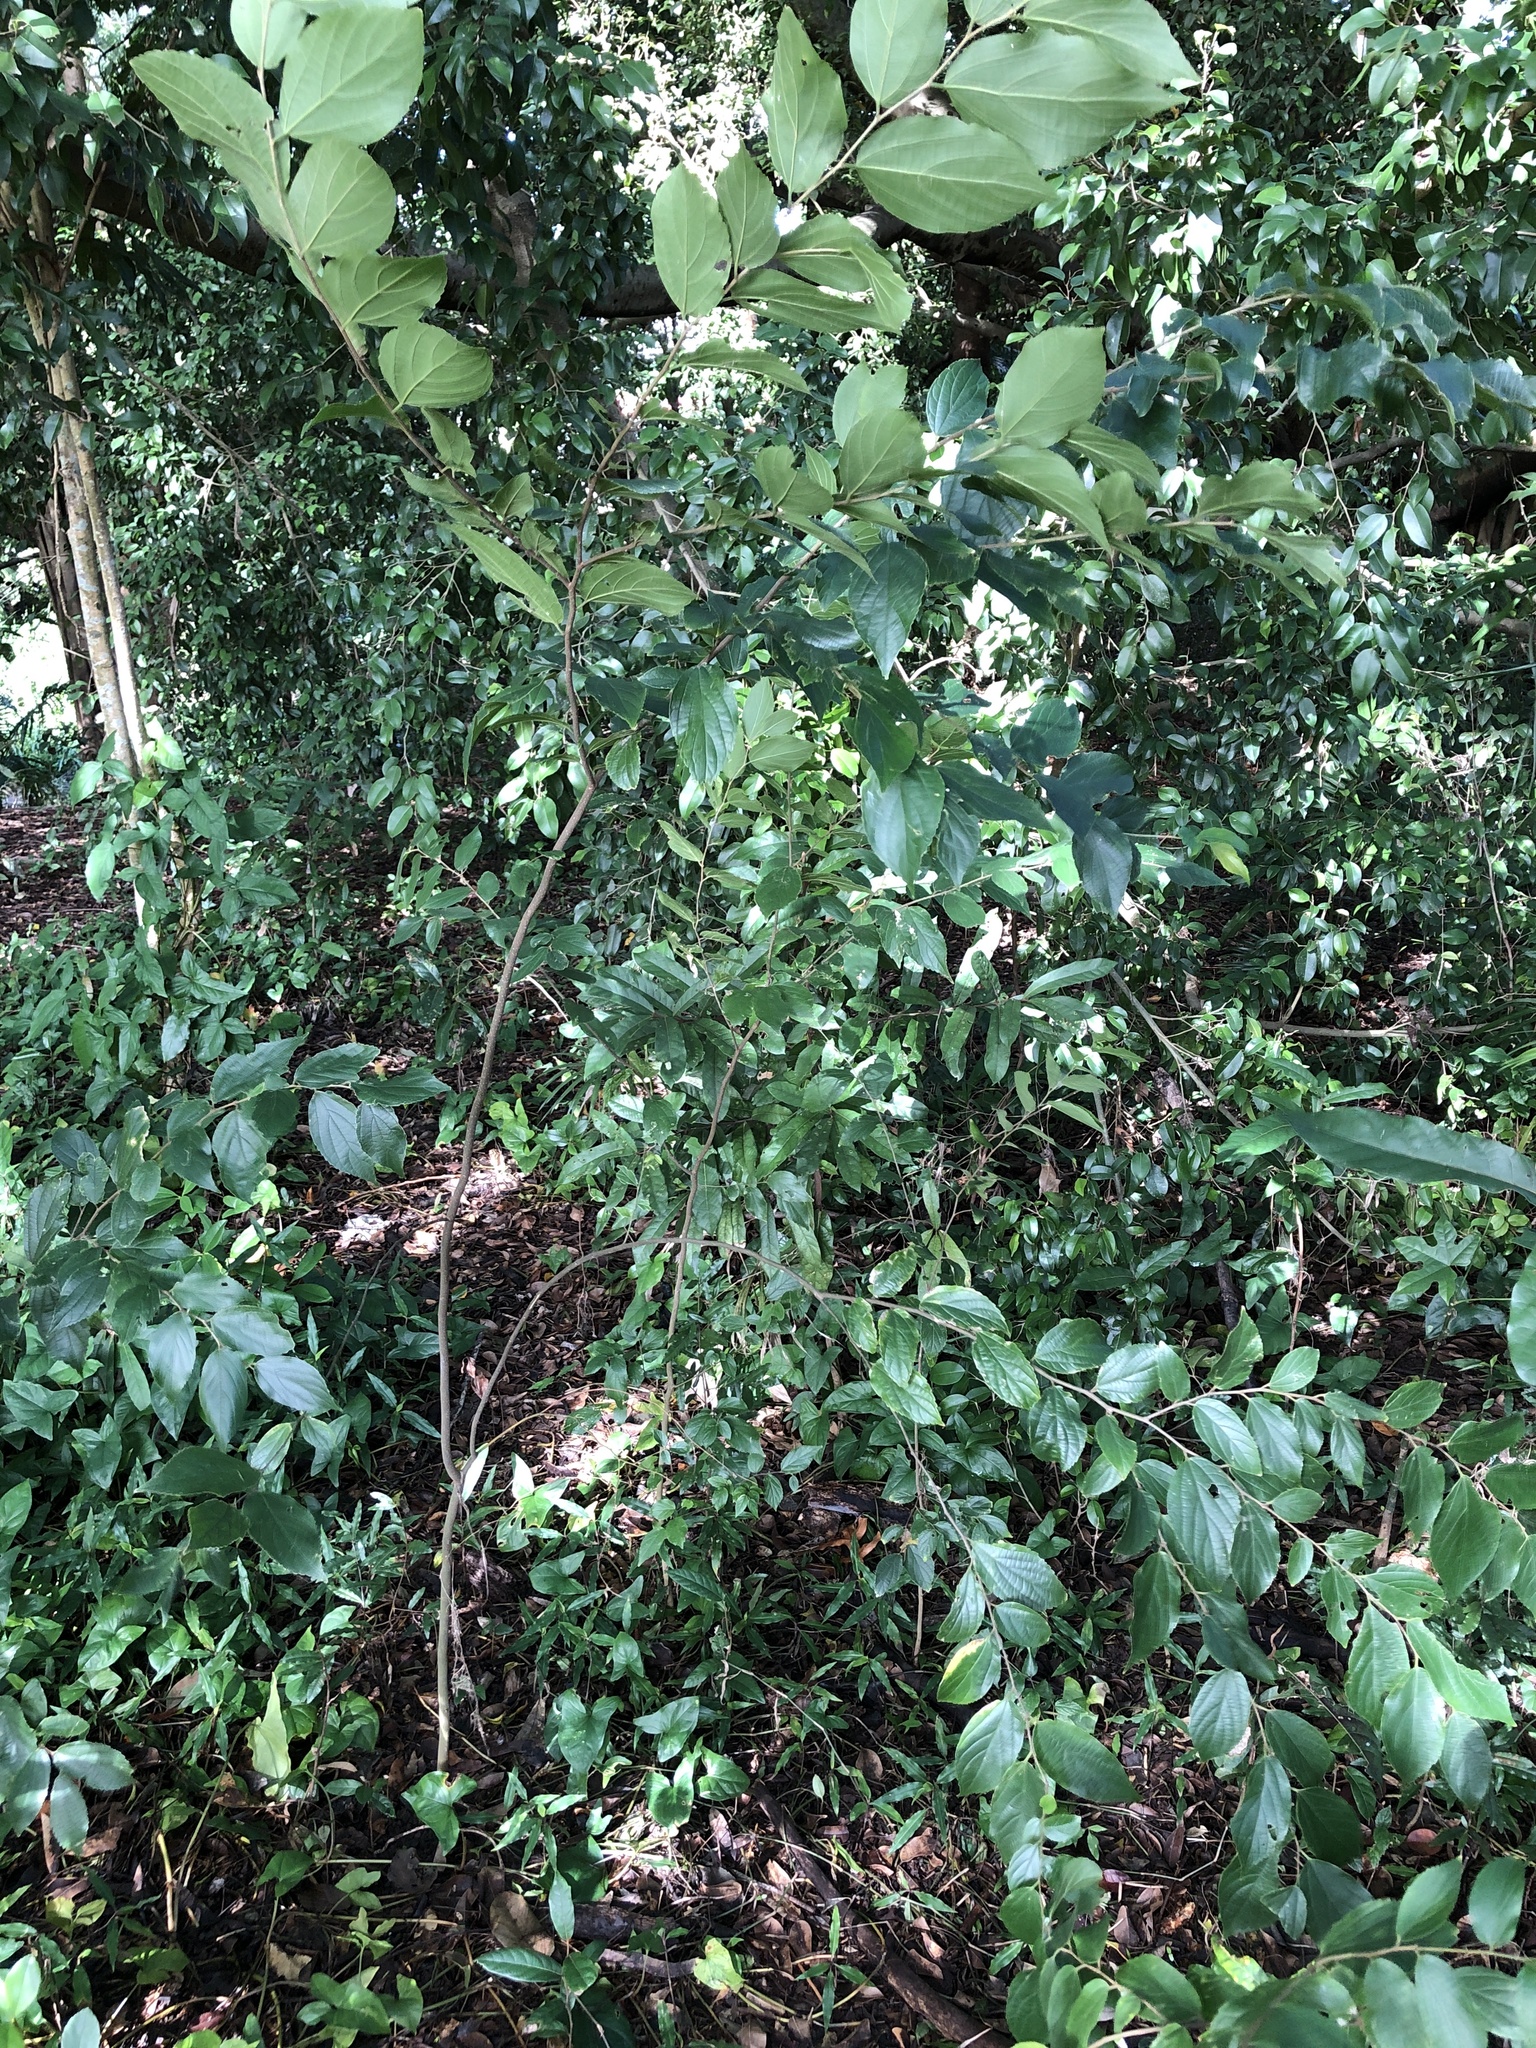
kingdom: Plantae
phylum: Tracheophyta
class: Magnoliopsida
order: Rosales
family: Cannabaceae
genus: Celtis
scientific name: Celtis sinensis
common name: Chinese hackberry
